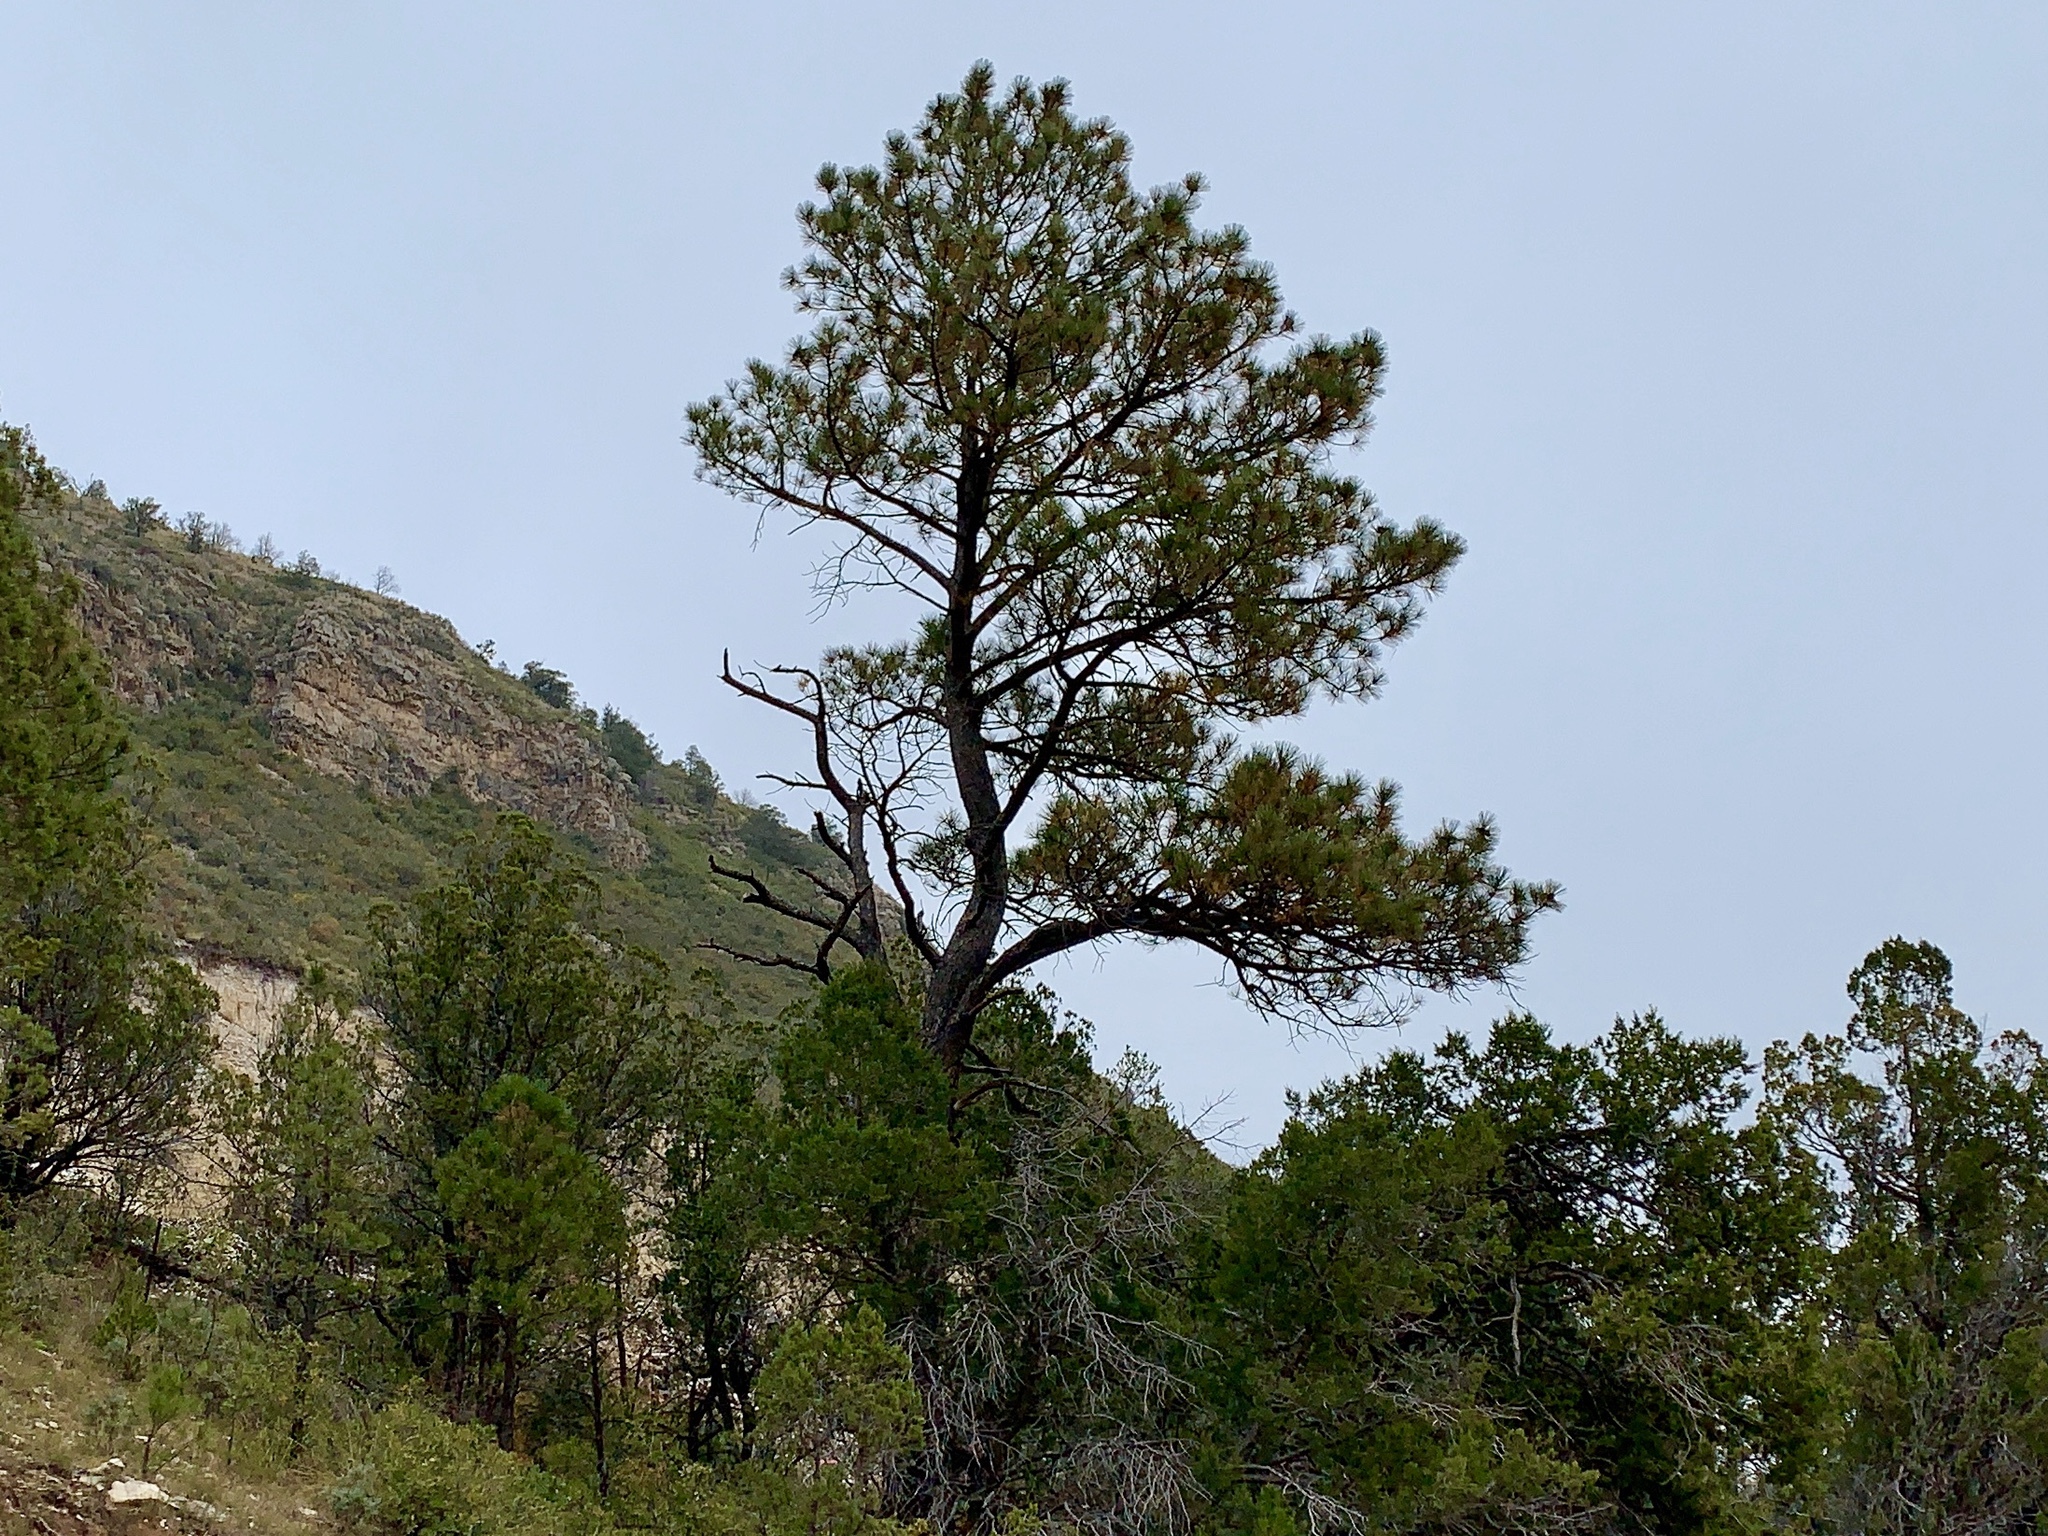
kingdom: Plantae
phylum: Tracheophyta
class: Pinopsida
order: Pinales
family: Pinaceae
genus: Pinus
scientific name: Pinus ponderosa
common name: Western yellow-pine
